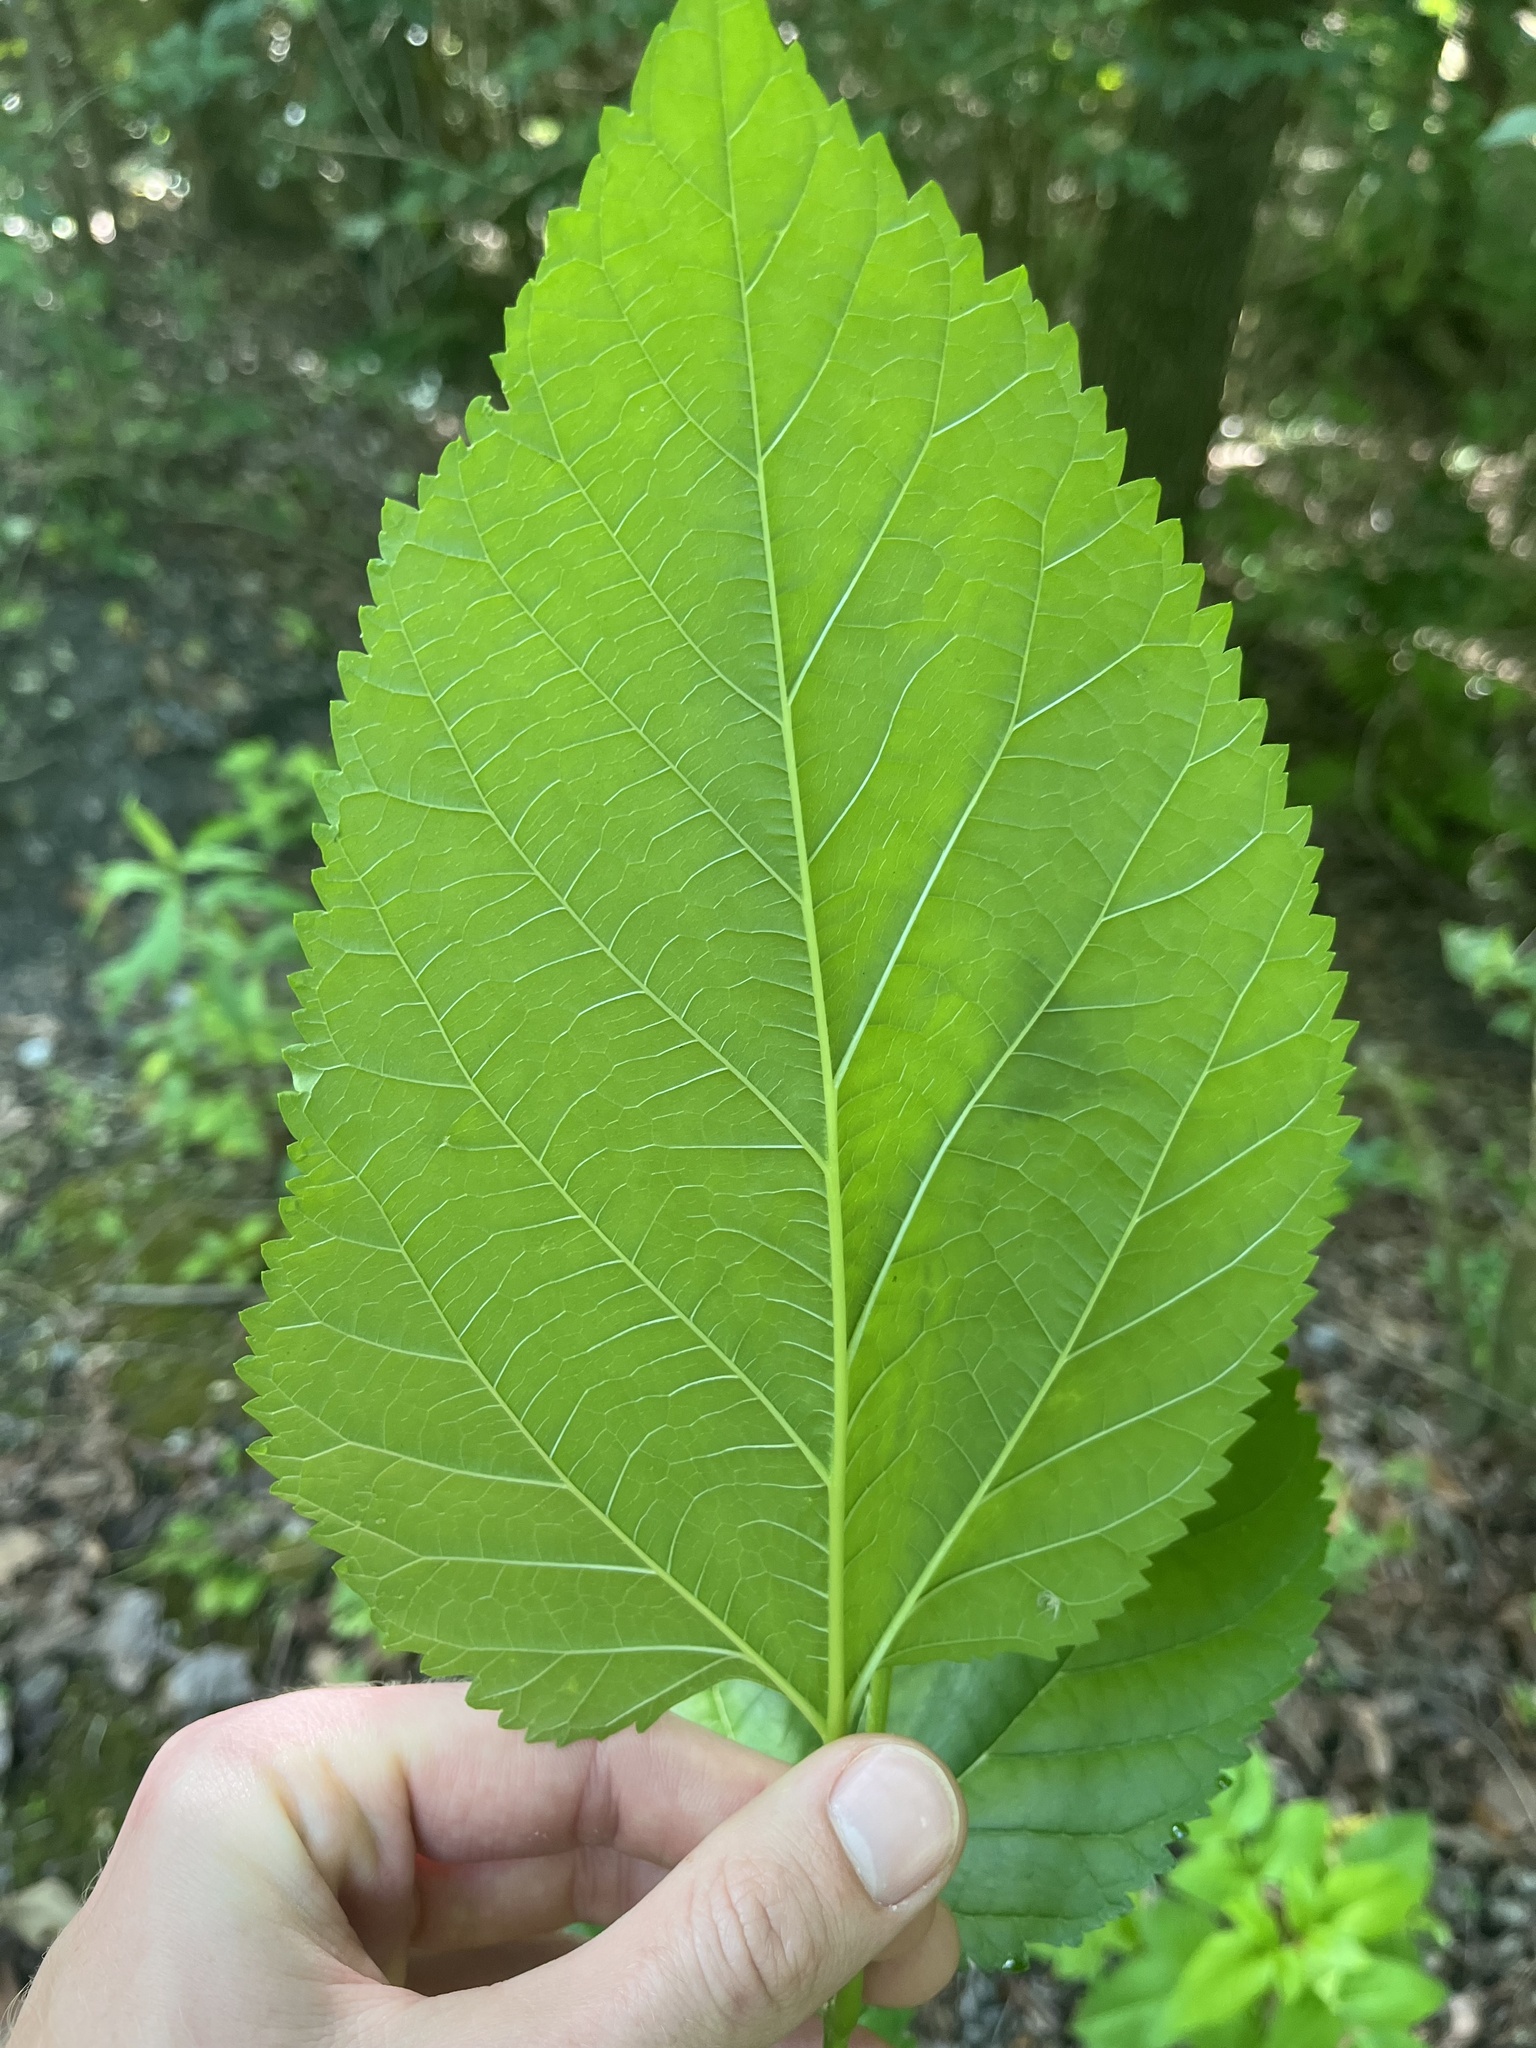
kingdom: Plantae
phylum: Tracheophyta
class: Magnoliopsida
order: Rosales
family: Moraceae
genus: Morus
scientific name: Morus alba
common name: White mulberry
